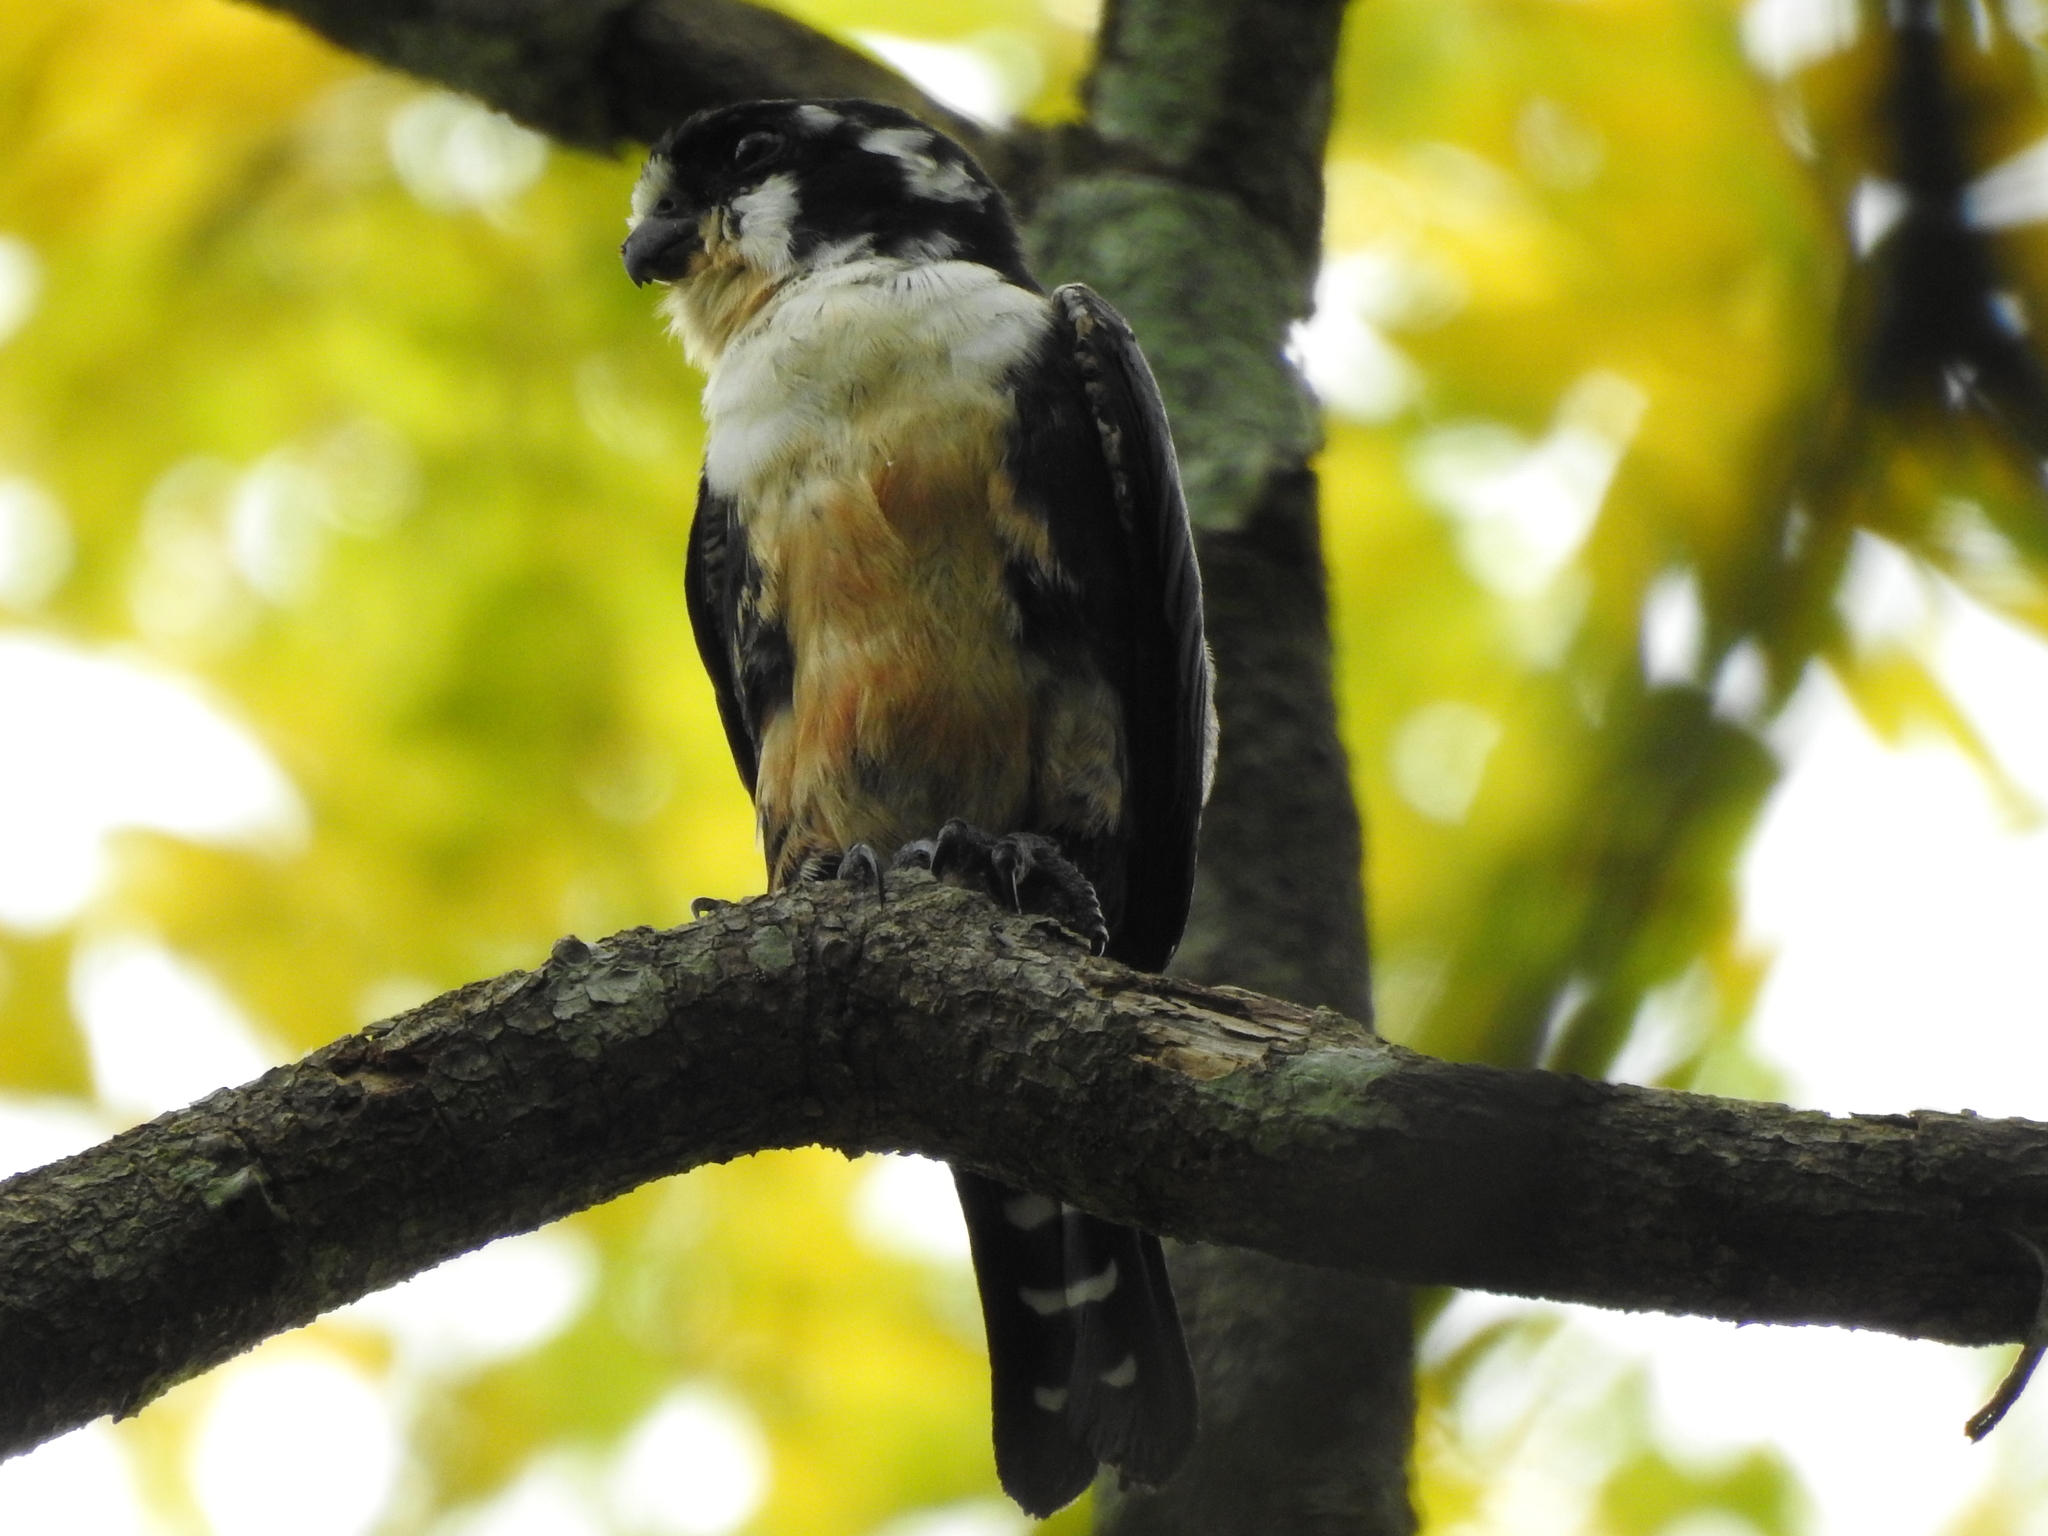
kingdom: Animalia
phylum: Chordata
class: Aves
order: Falconiformes
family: Falconidae
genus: Microhierax
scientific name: Microhierax fringillarius
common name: Black-thighed falconet
